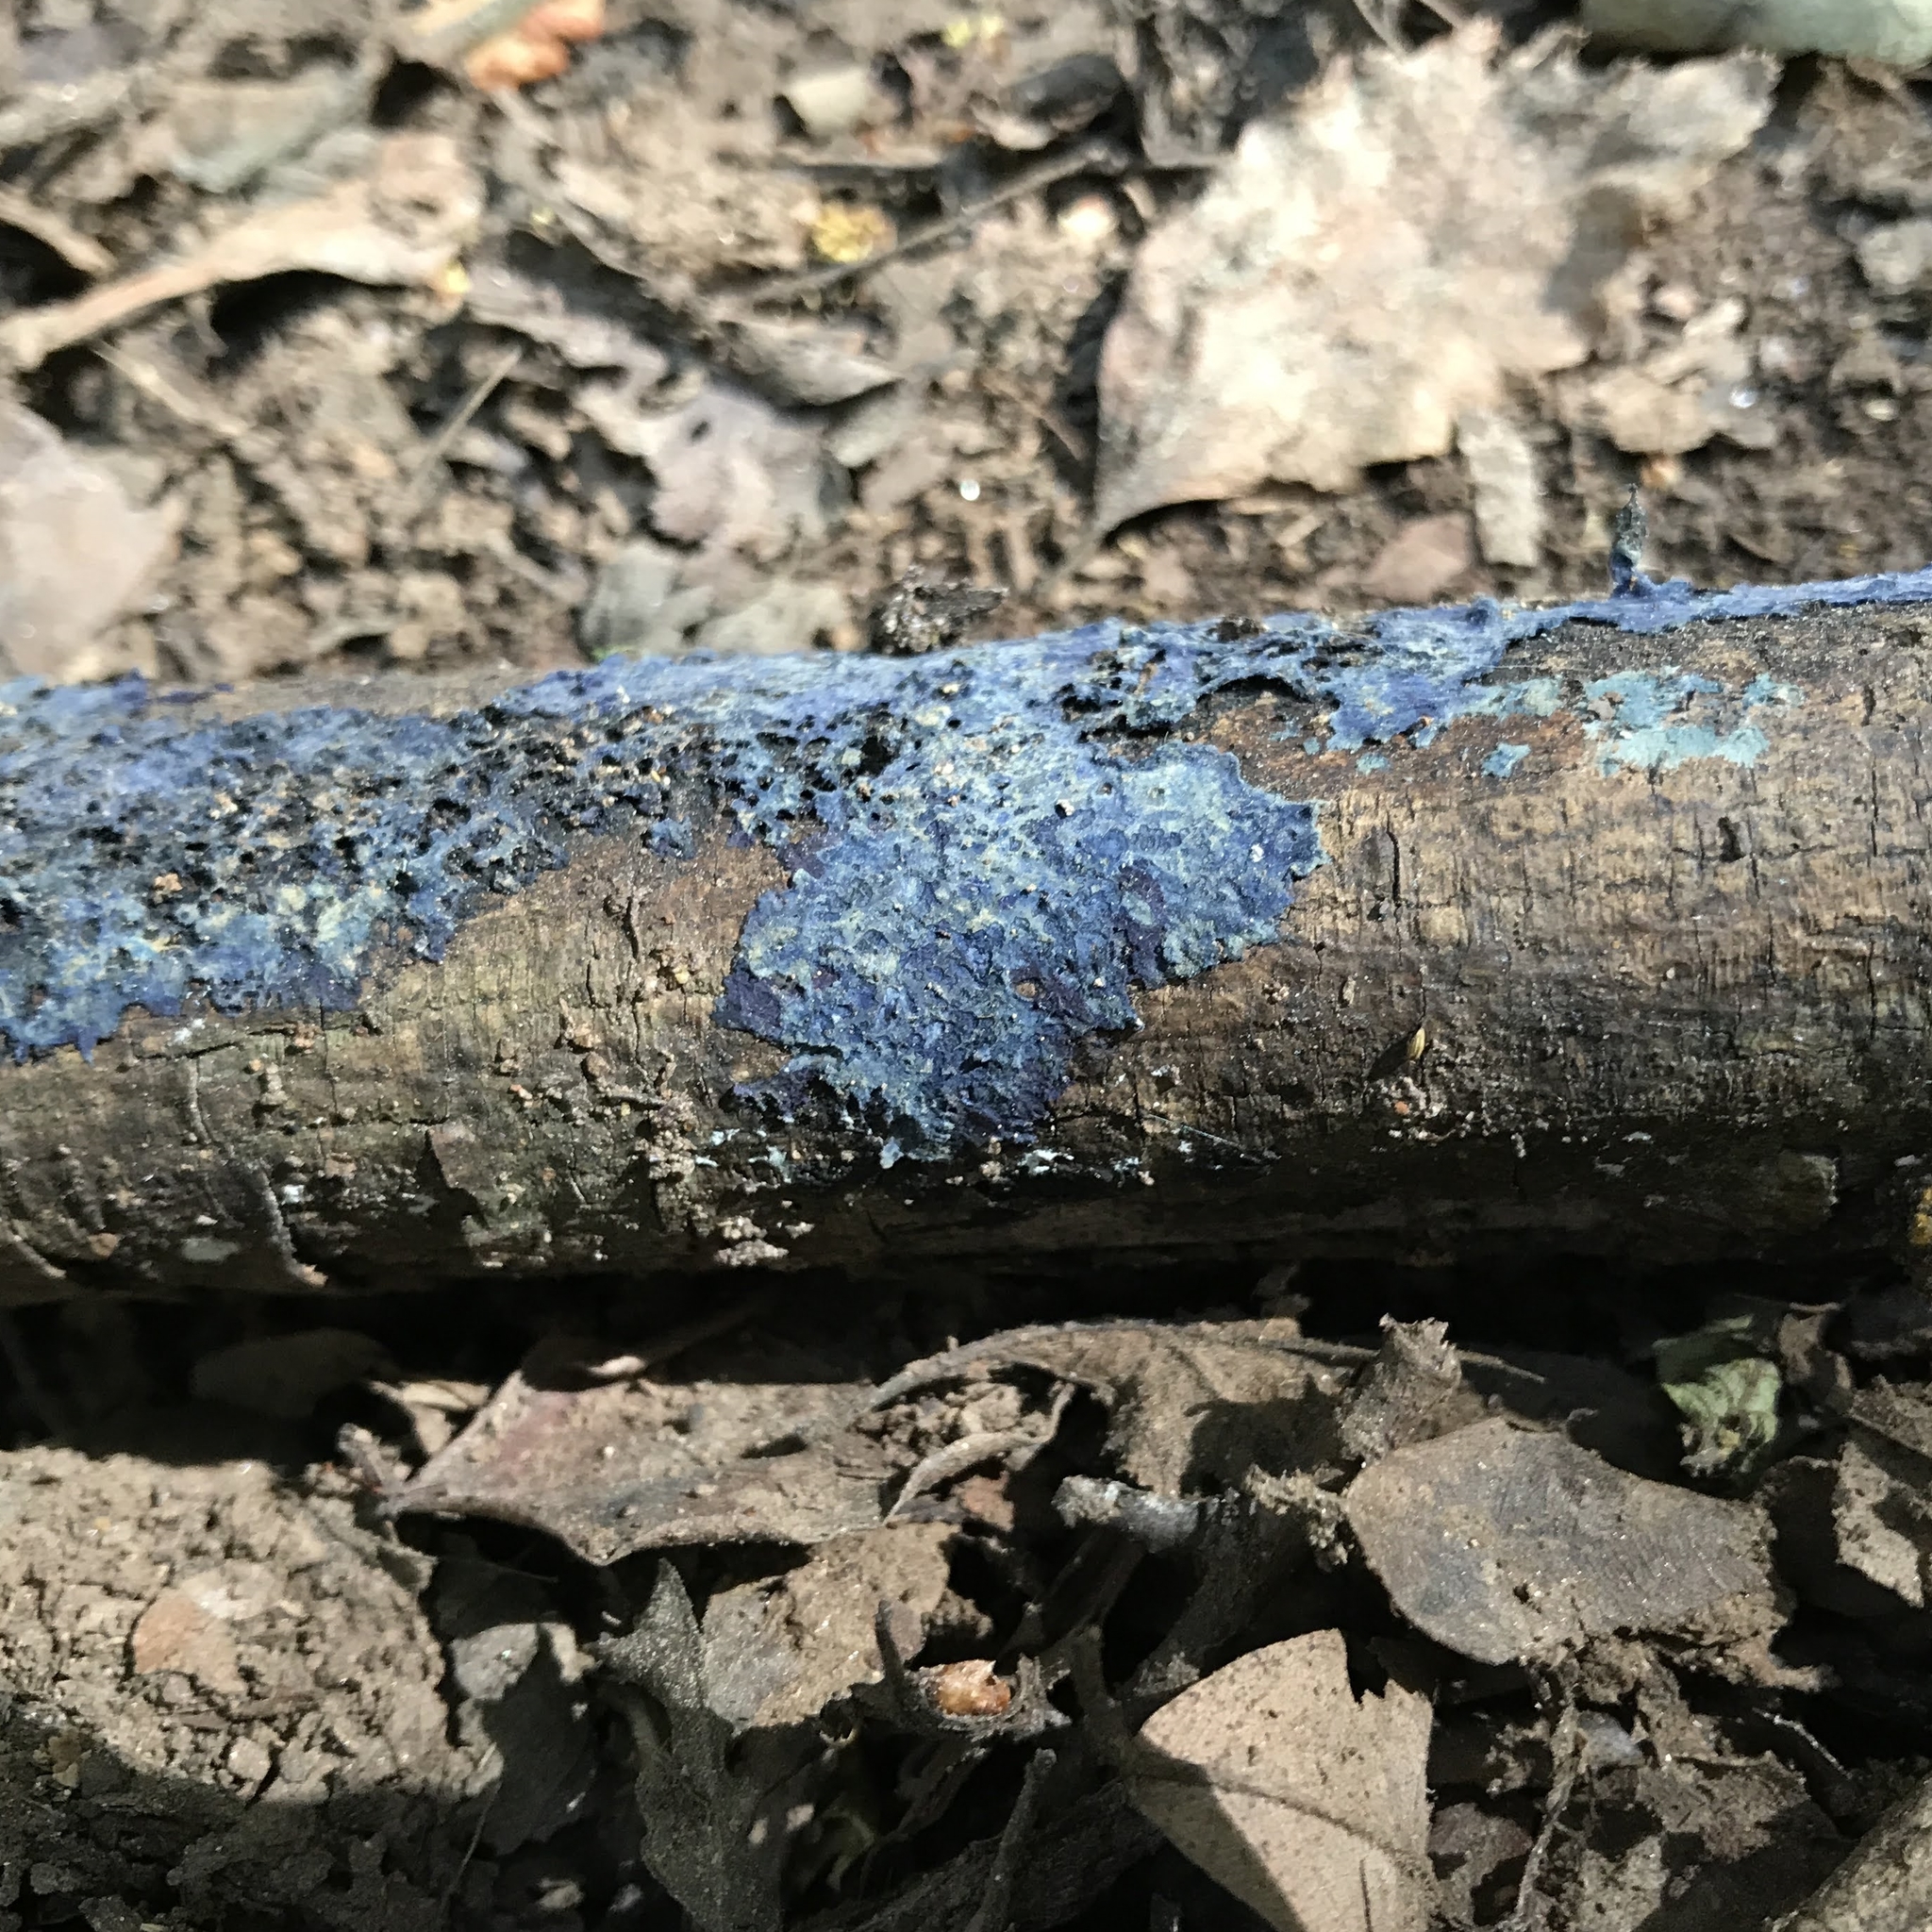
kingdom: Fungi
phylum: Basidiomycota
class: Agaricomycetes
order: Polyporales
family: Phanerochaetaceae
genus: Terana
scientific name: Terana coerulea
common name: Cobalt crust
